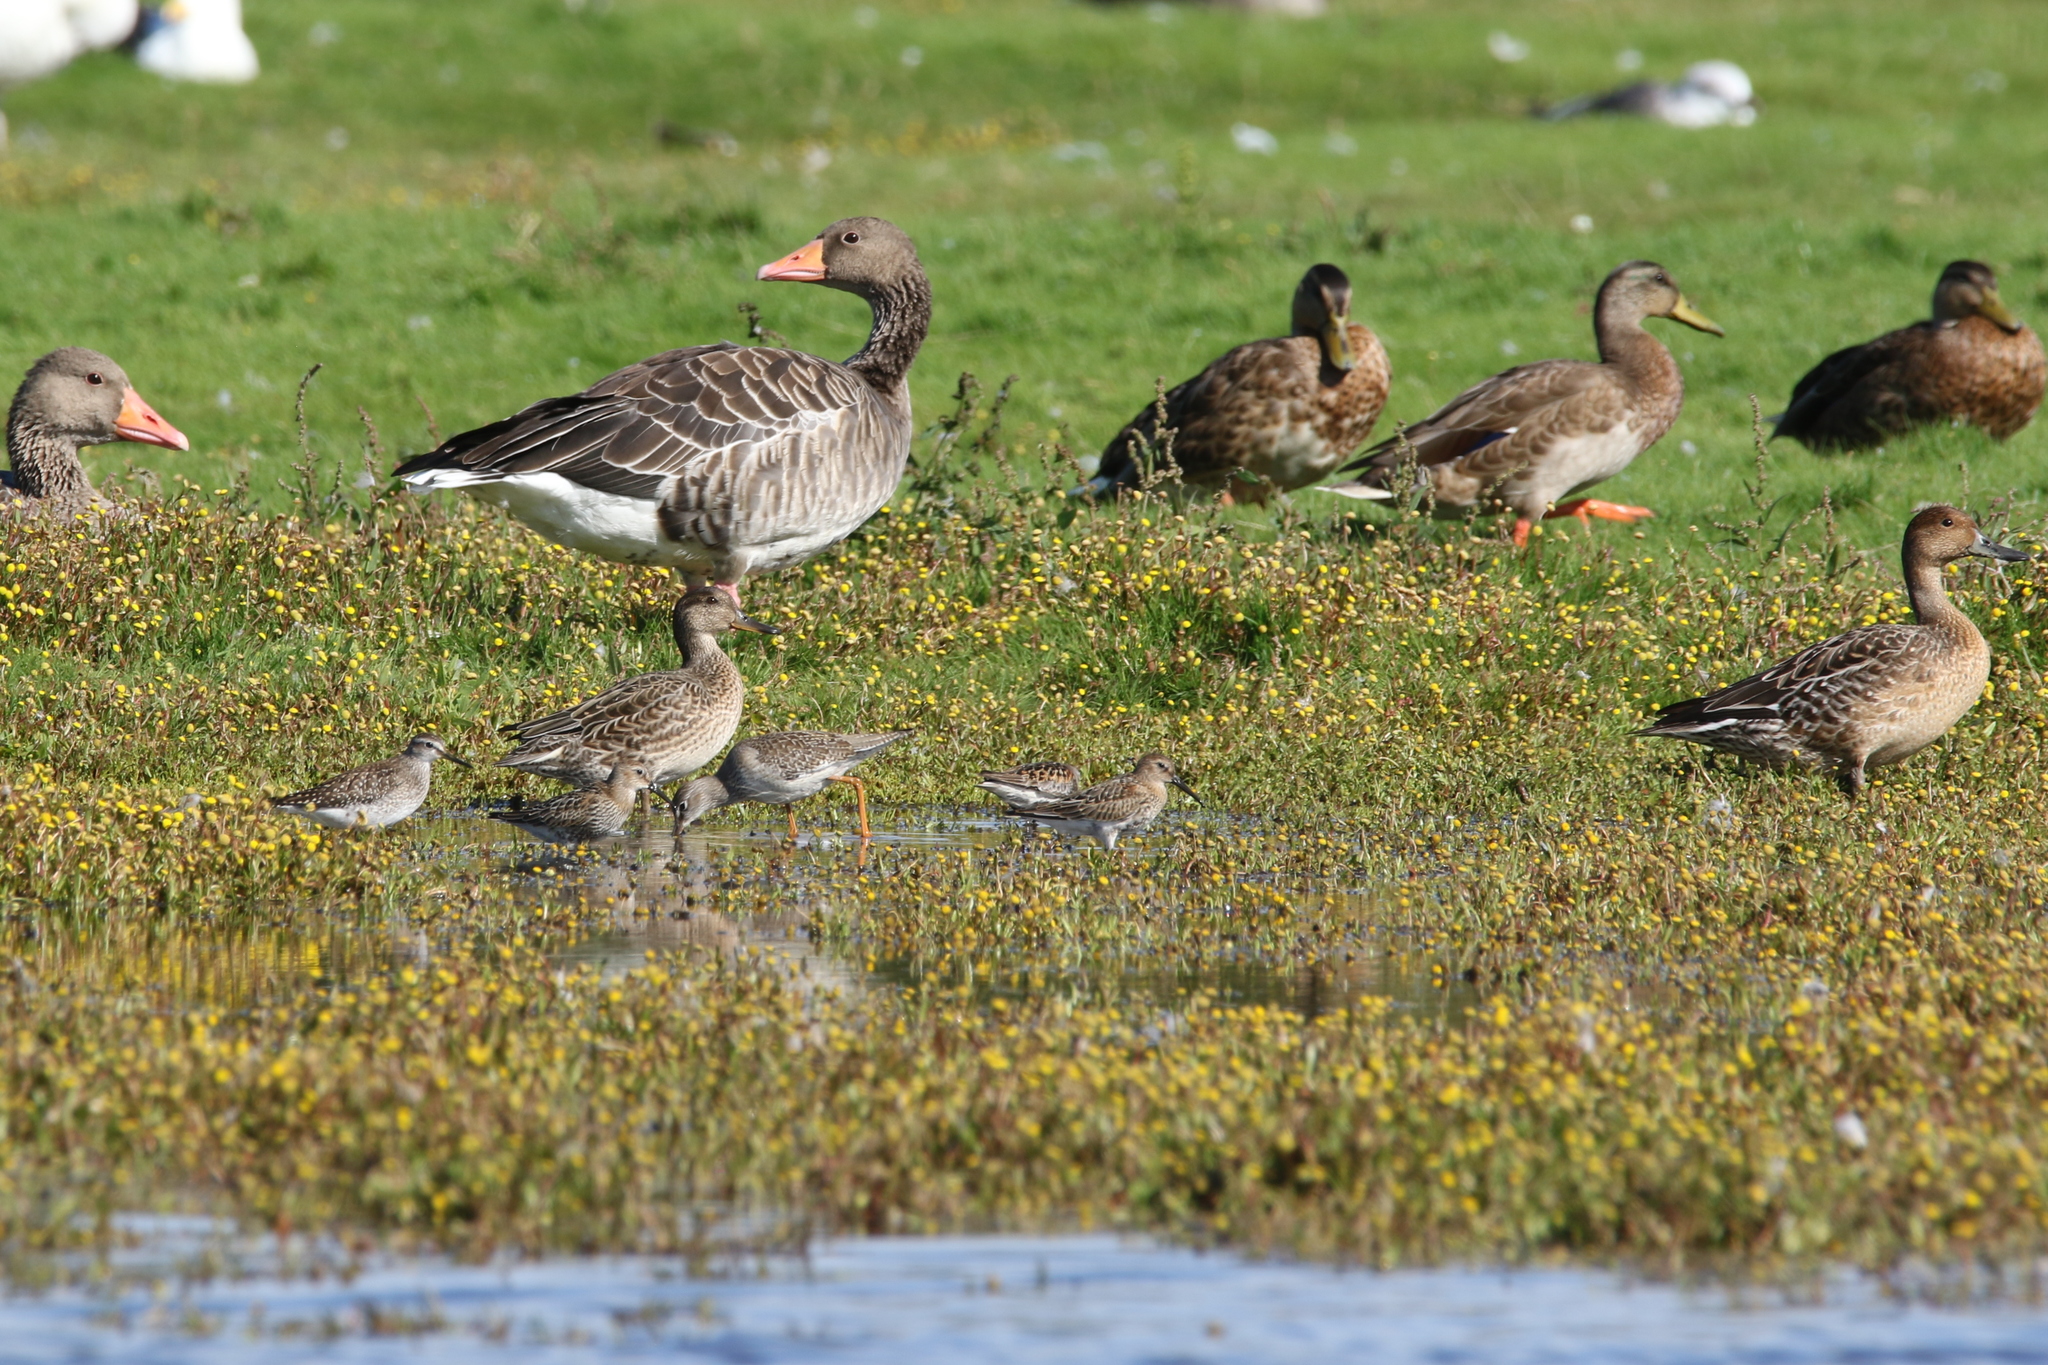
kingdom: Animalia
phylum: Chordata
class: Aves
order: Charadriiformes
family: Scolopacidae
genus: Calidris
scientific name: Calidris alpina
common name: Dunlin
